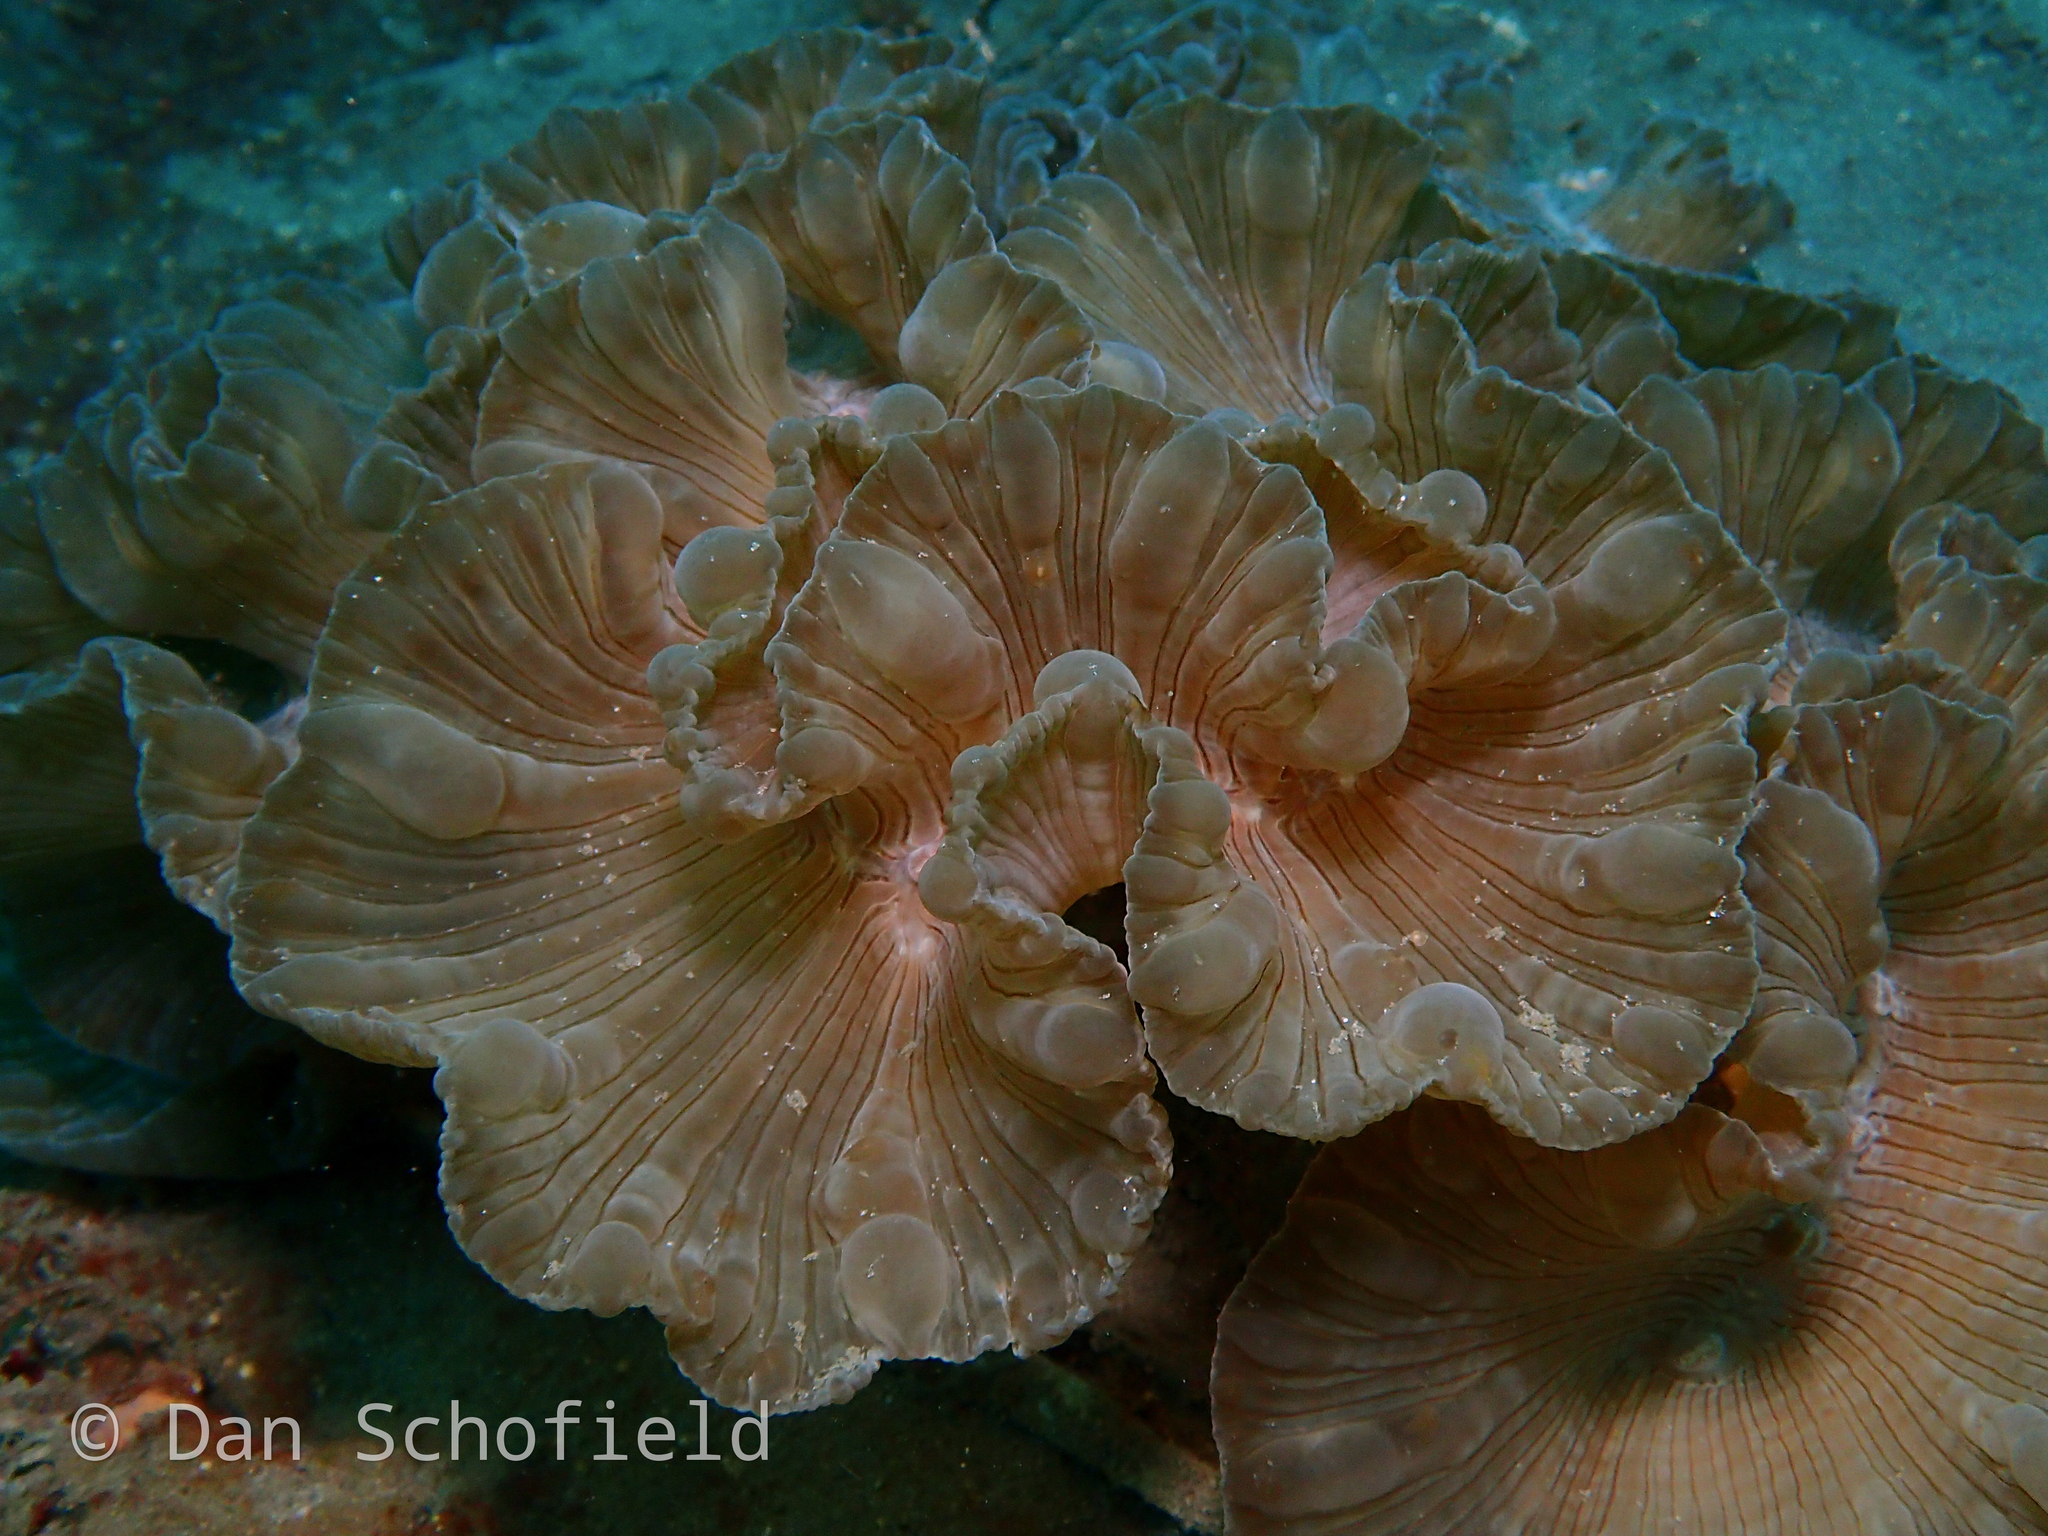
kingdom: Animalia
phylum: Cnidaria
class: Anthozoa
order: Scleractinia
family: Plerogyridae
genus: Nemenzophyllia
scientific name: Nemenzophyllia turbida
